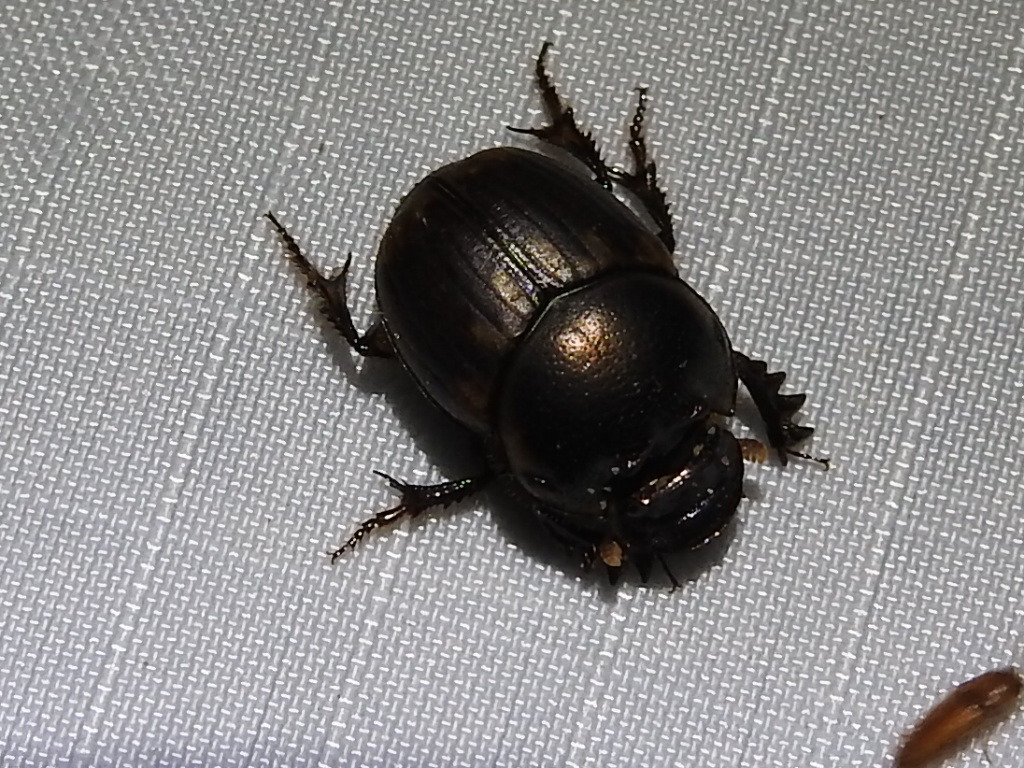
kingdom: Animalia
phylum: Arthropoda
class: Insecta
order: Coleoptera
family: Scarabaeidae
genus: Digitonthophagus
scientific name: Digitonthophagus gazella
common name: Brown dung beetle
